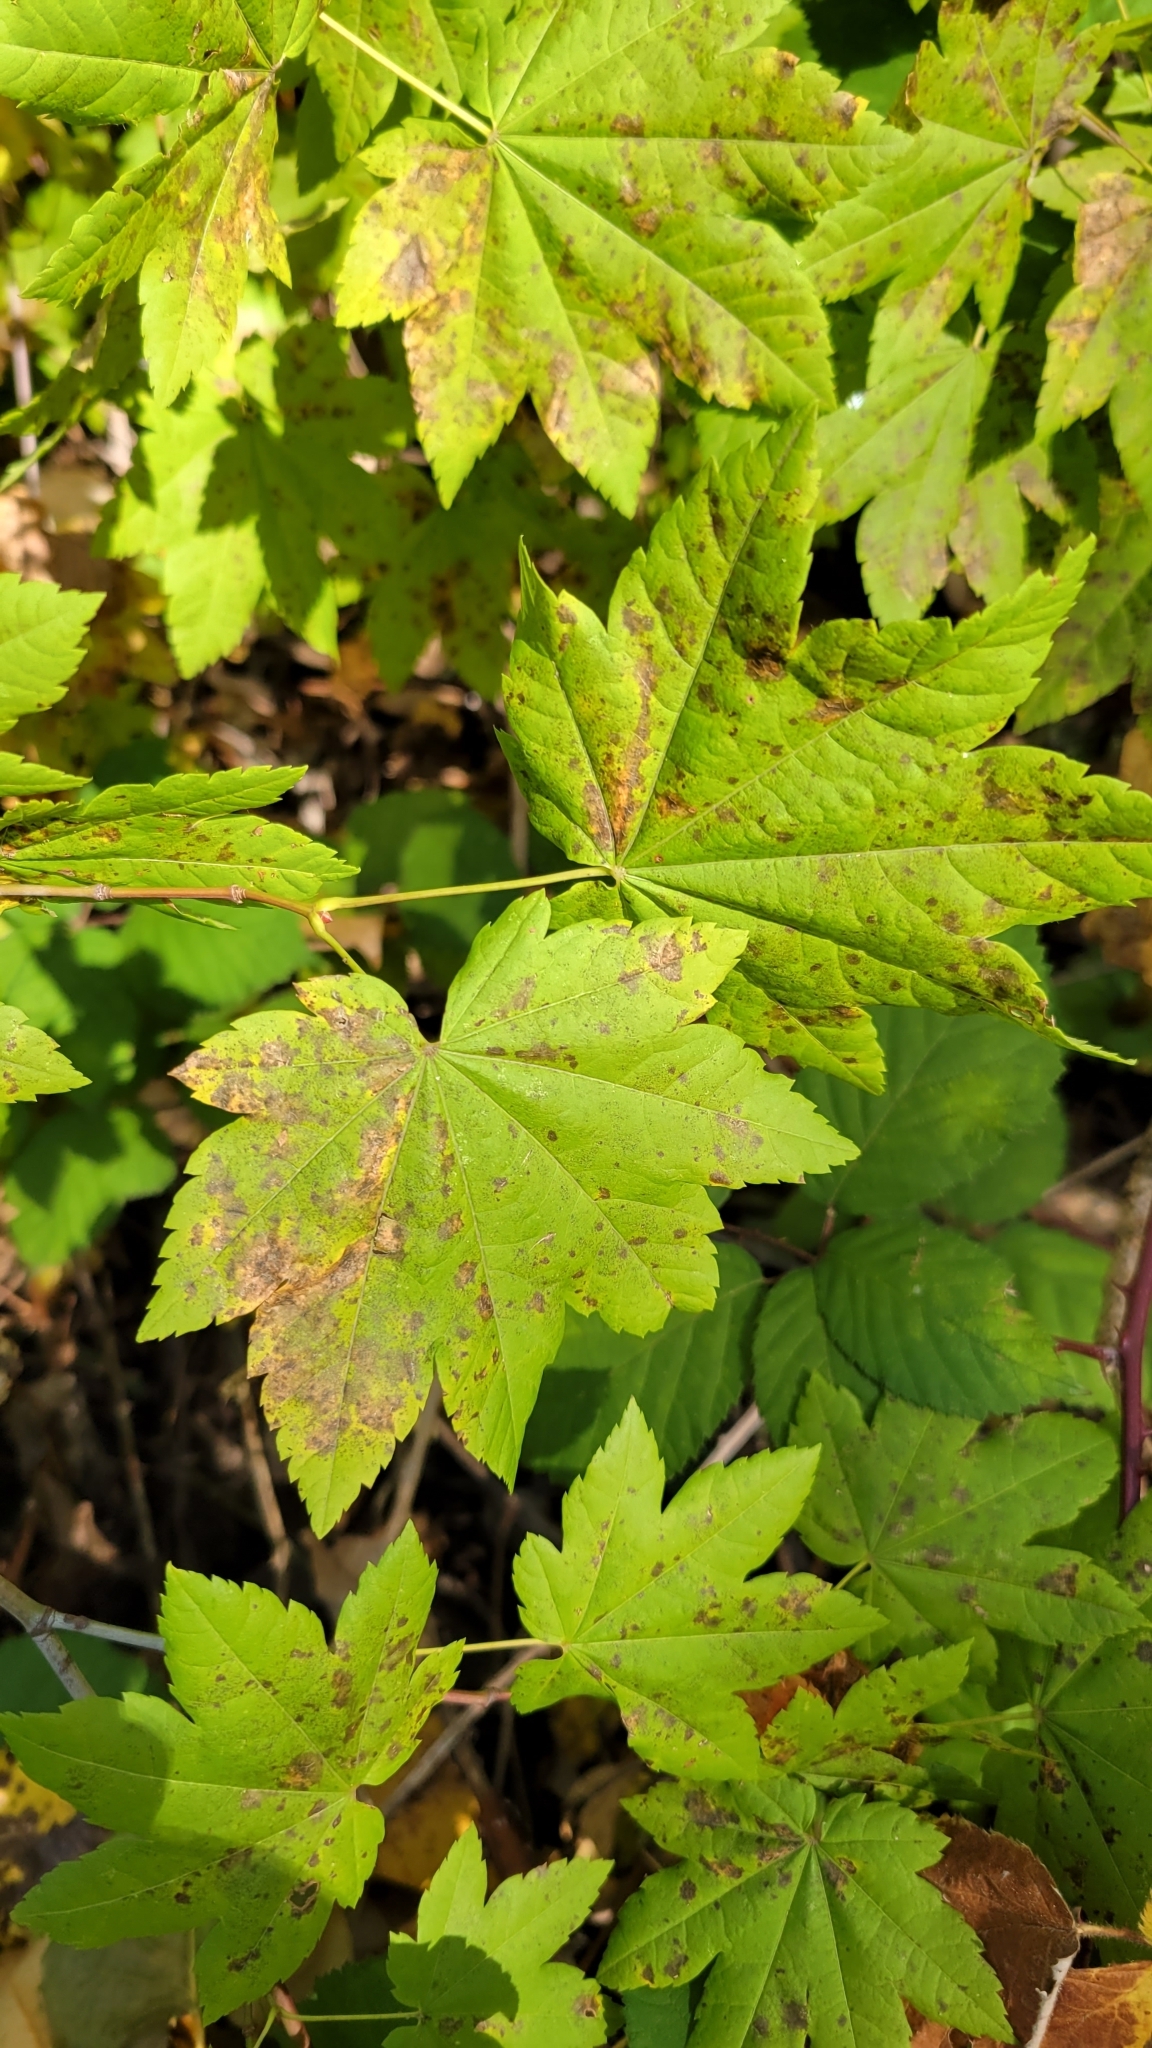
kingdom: Plantae
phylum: Tracheophyta
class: Magnoliopsida
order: Sapindales
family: Sapindaceae
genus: Acer
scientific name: Acer circinatum
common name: Vine maple
